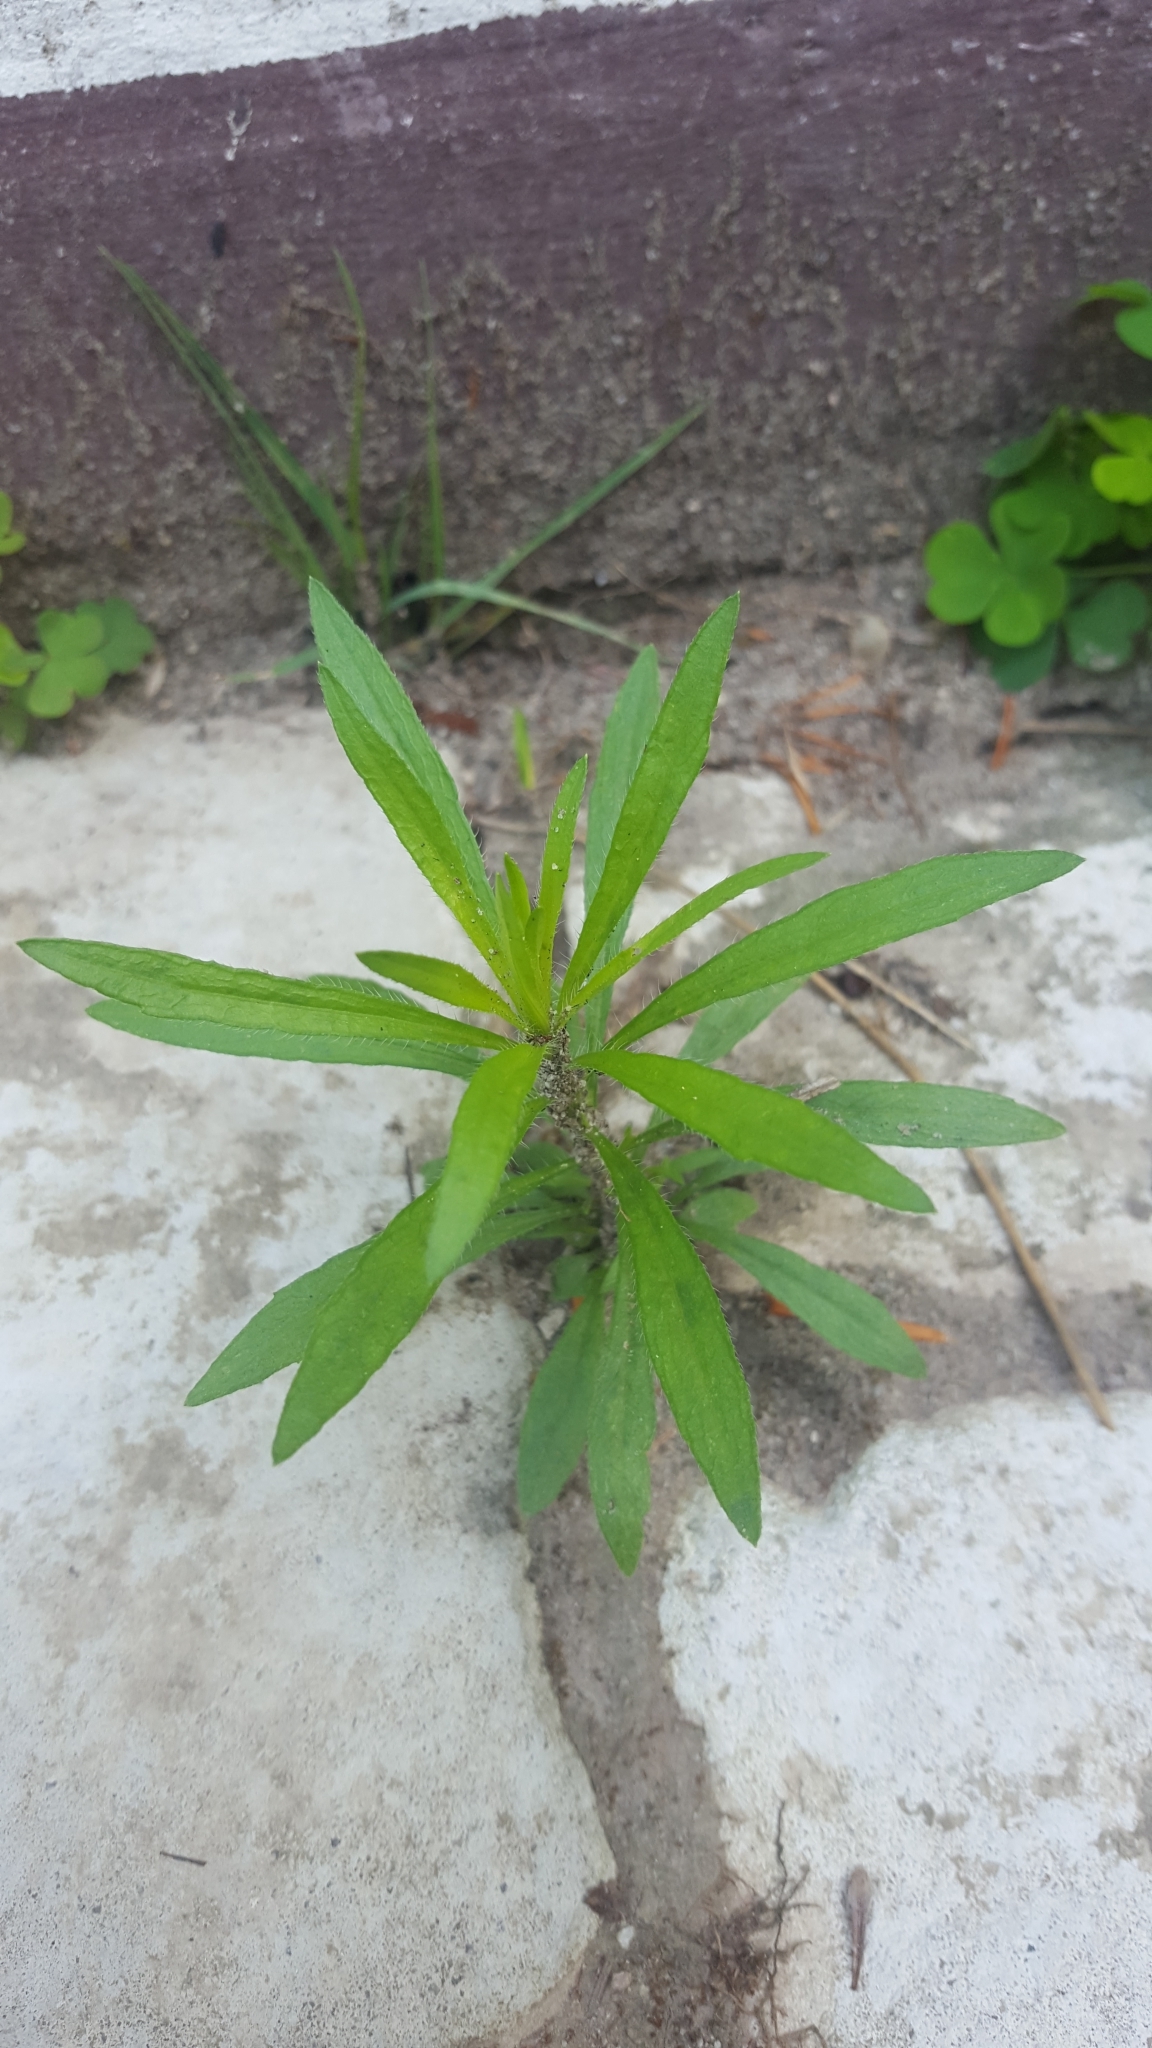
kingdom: Plantae
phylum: Tracheophyta
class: Magnoliopsida
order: Asterales
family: Asteraceae
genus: Erigeron
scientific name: Erigeron canadensis
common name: Canadian fleabane
